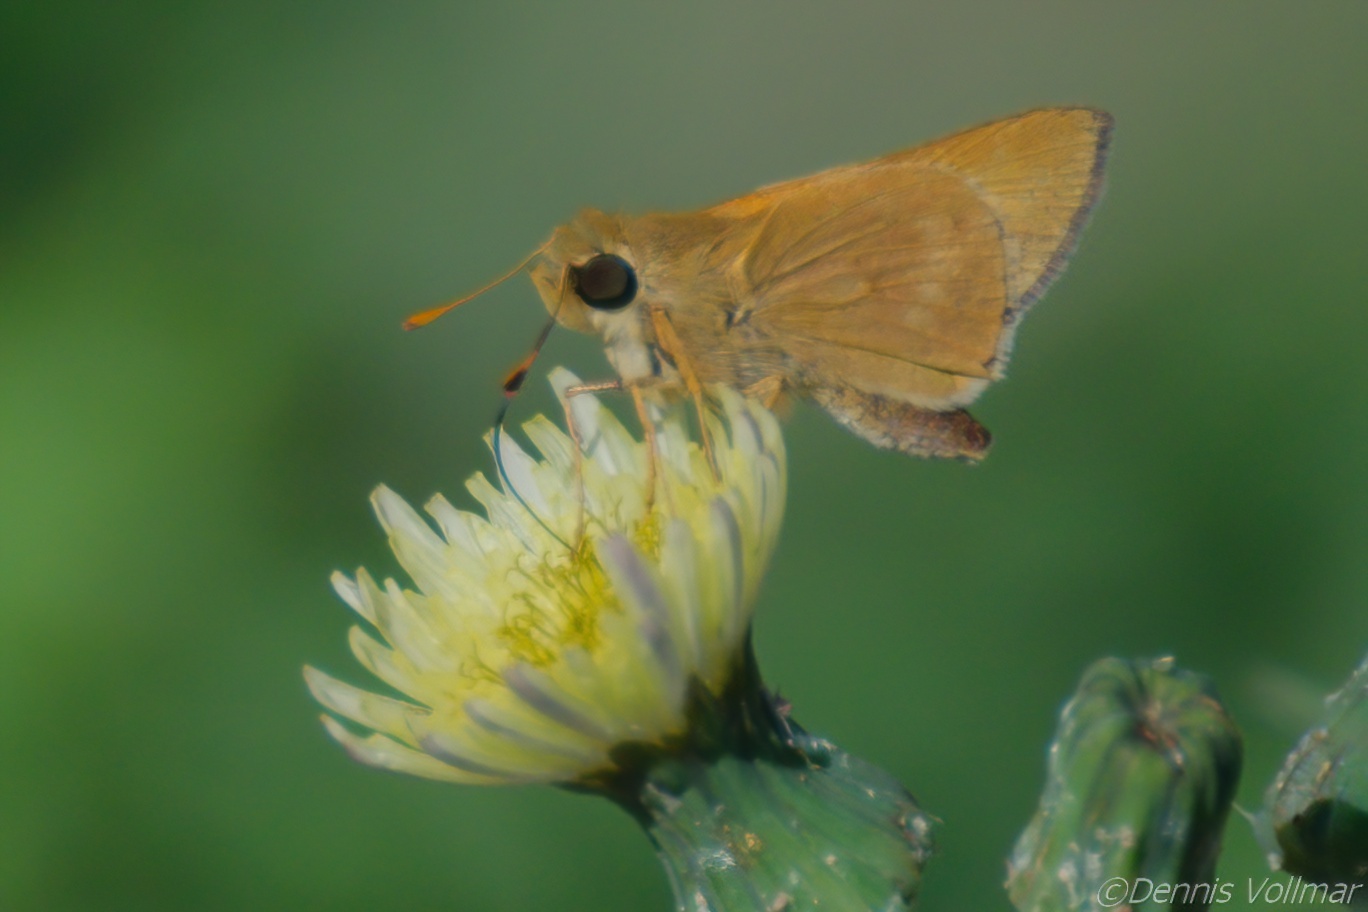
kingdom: Animalia
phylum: Arthropoda
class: Insecta
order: Lepidoptera
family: Hesperiidae
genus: Mellana
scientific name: Mellana eulogius
